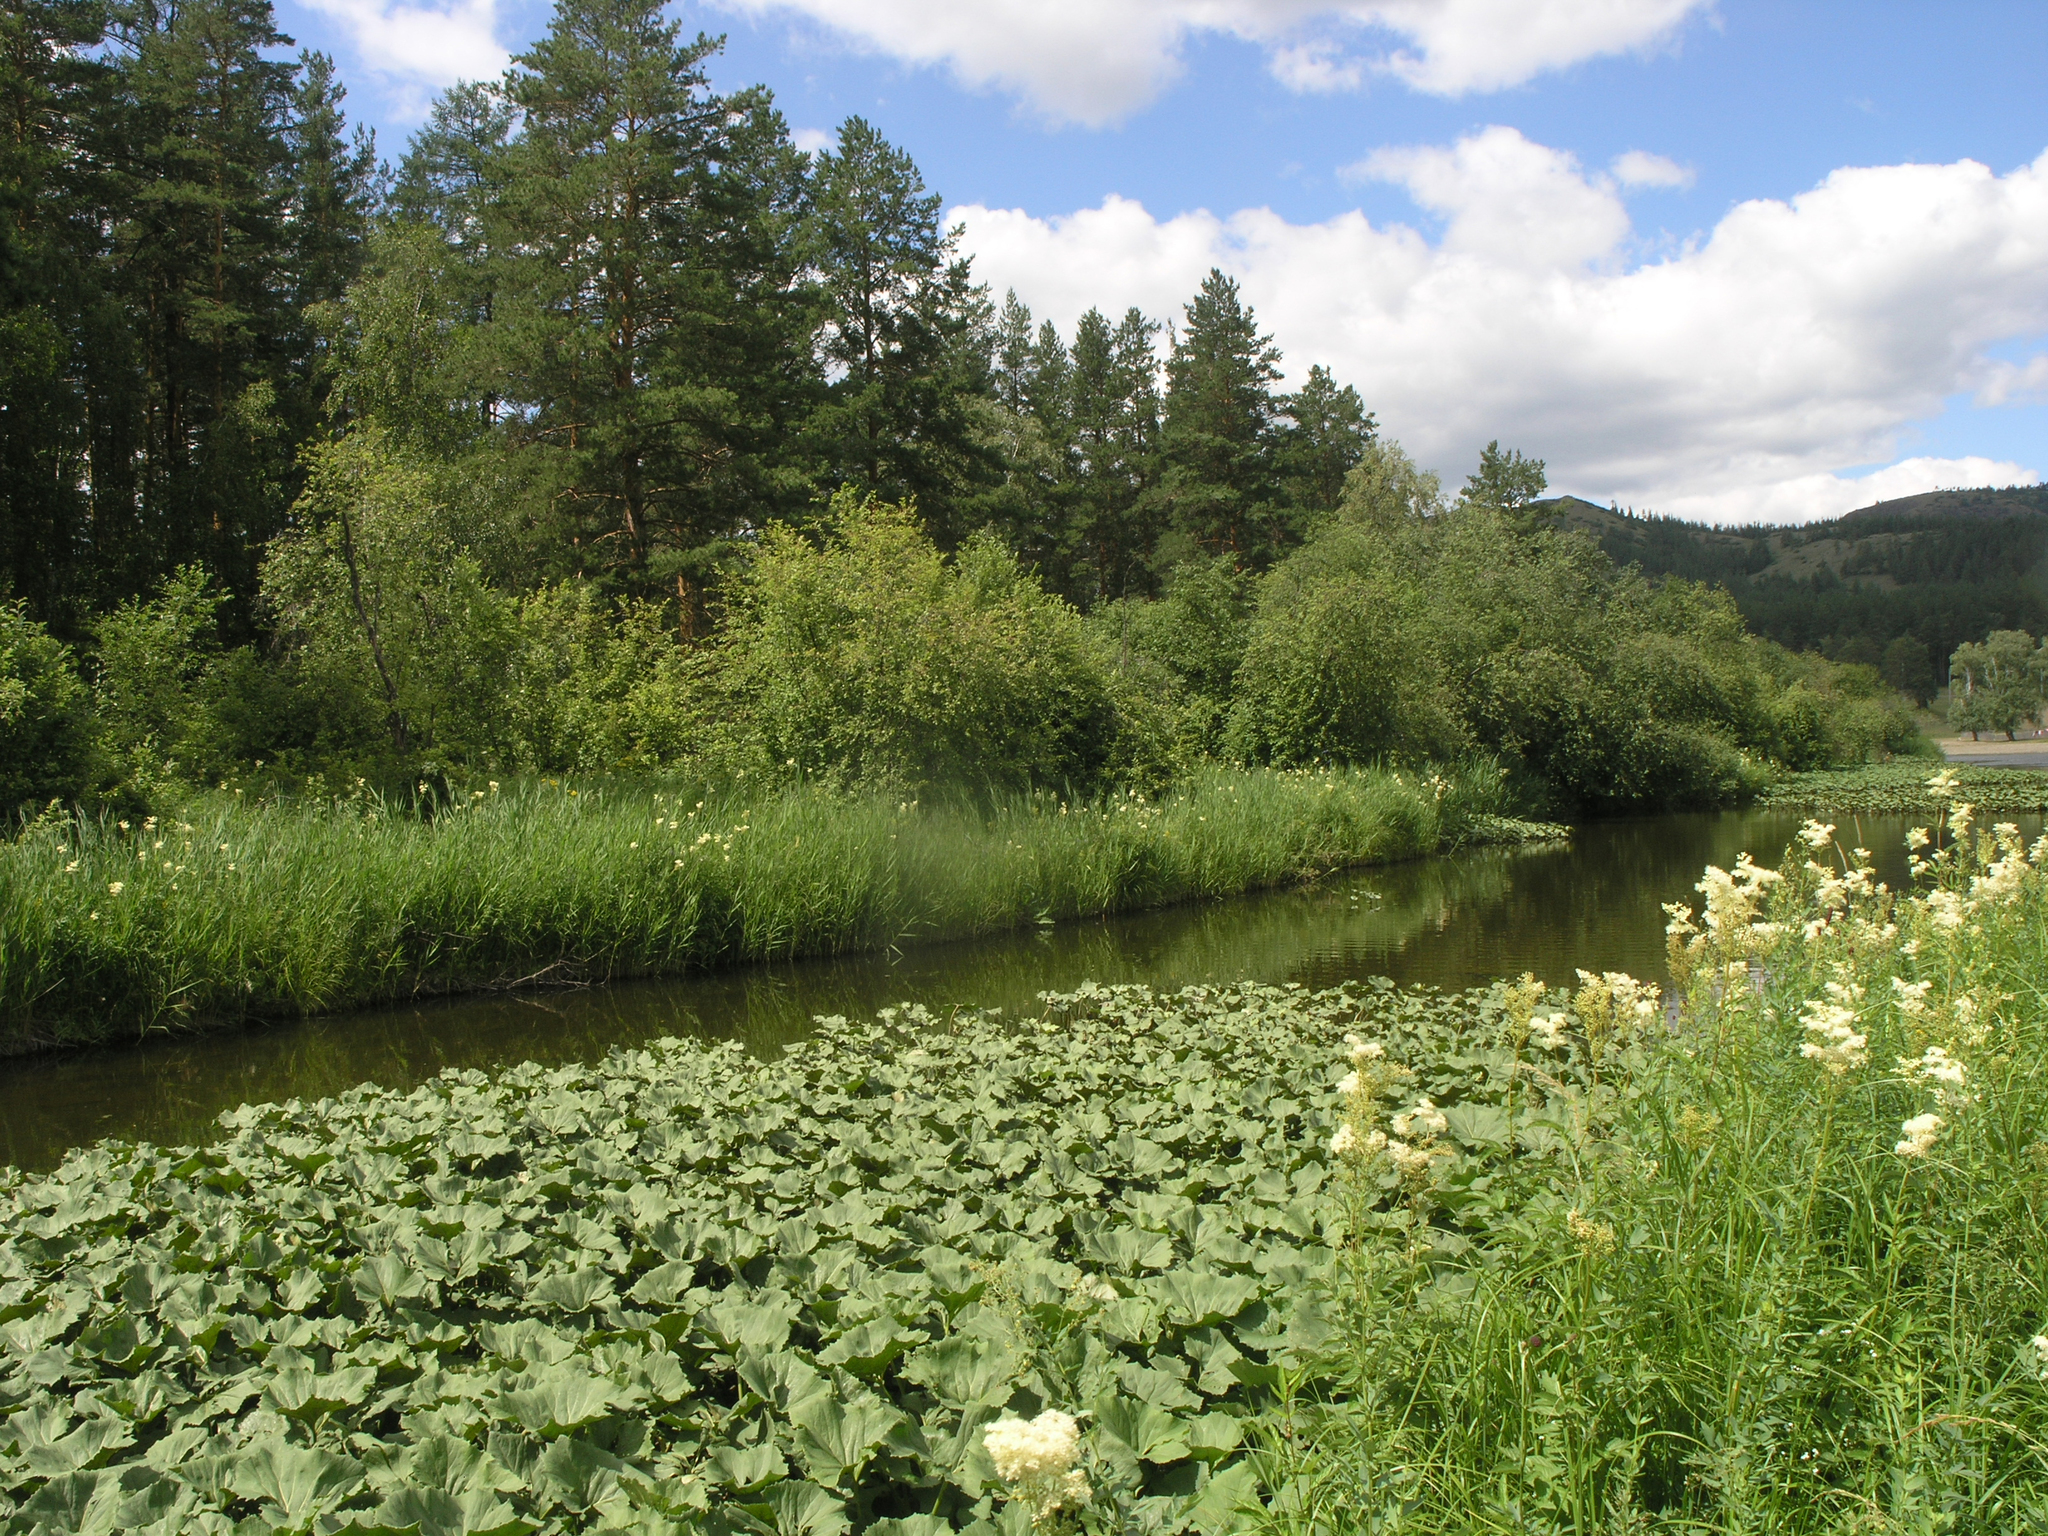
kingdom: Plantae
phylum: Tracheophyta
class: Magnoliopsida
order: Asterales
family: Asteraceae
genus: Petasites
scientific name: Petasites radiatus
